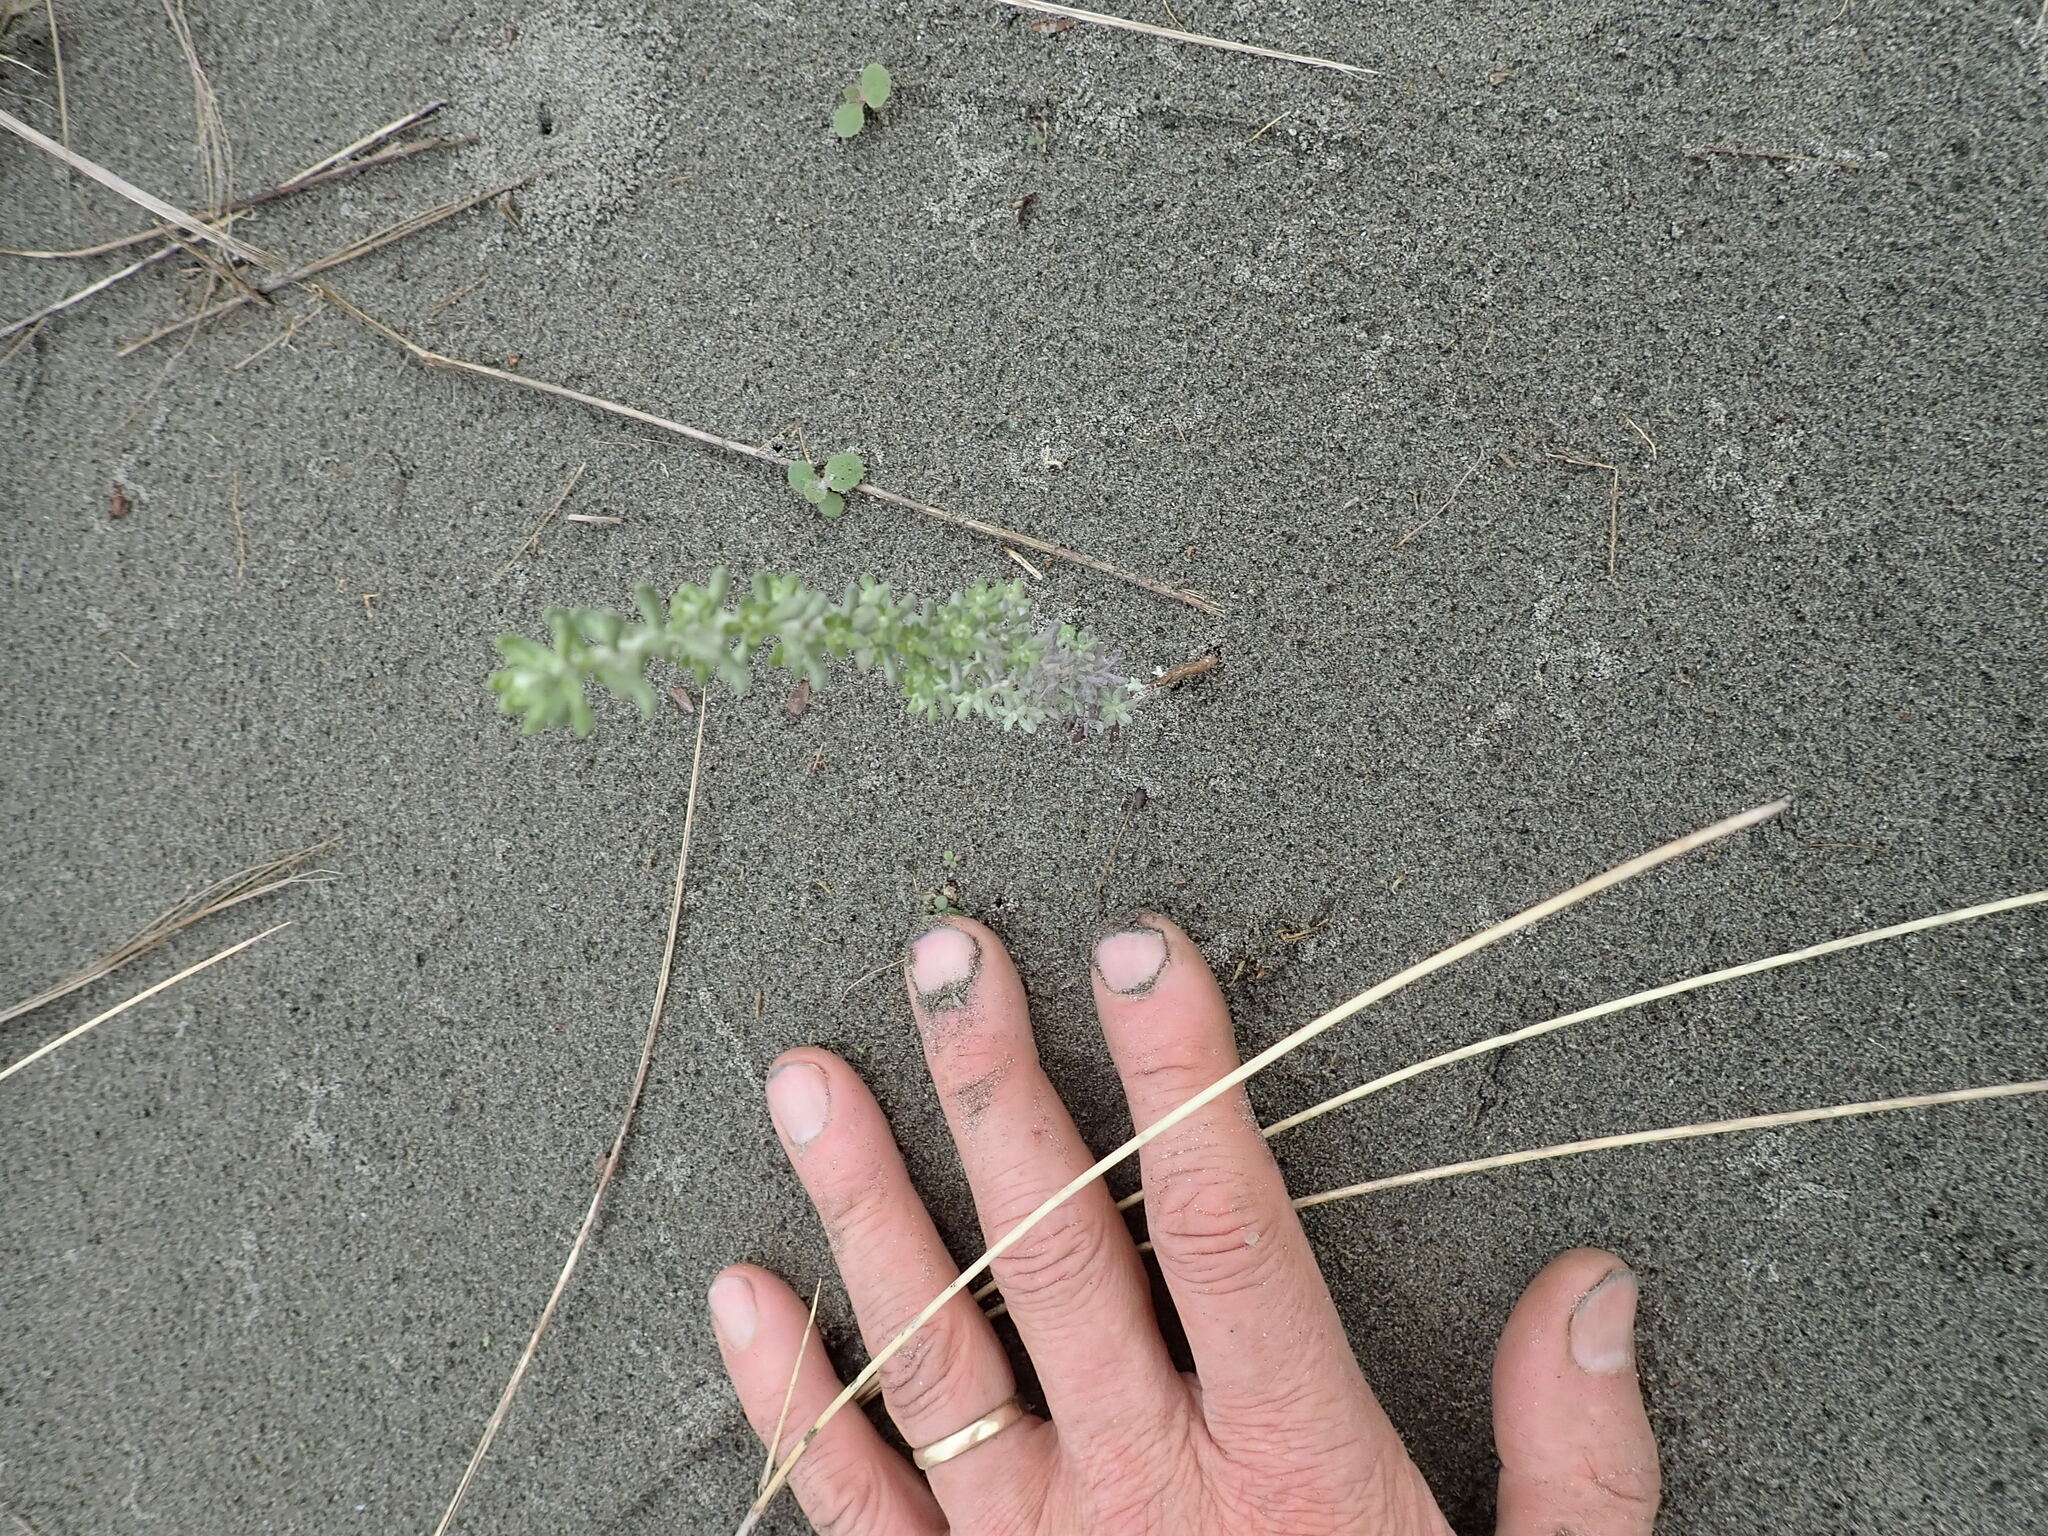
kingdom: Plantae
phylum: Tracheophyta
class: Magnoliopsida
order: Asterales
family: Asteraceae
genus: Ozothamnus
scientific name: Ozothamnus leptophyllus
